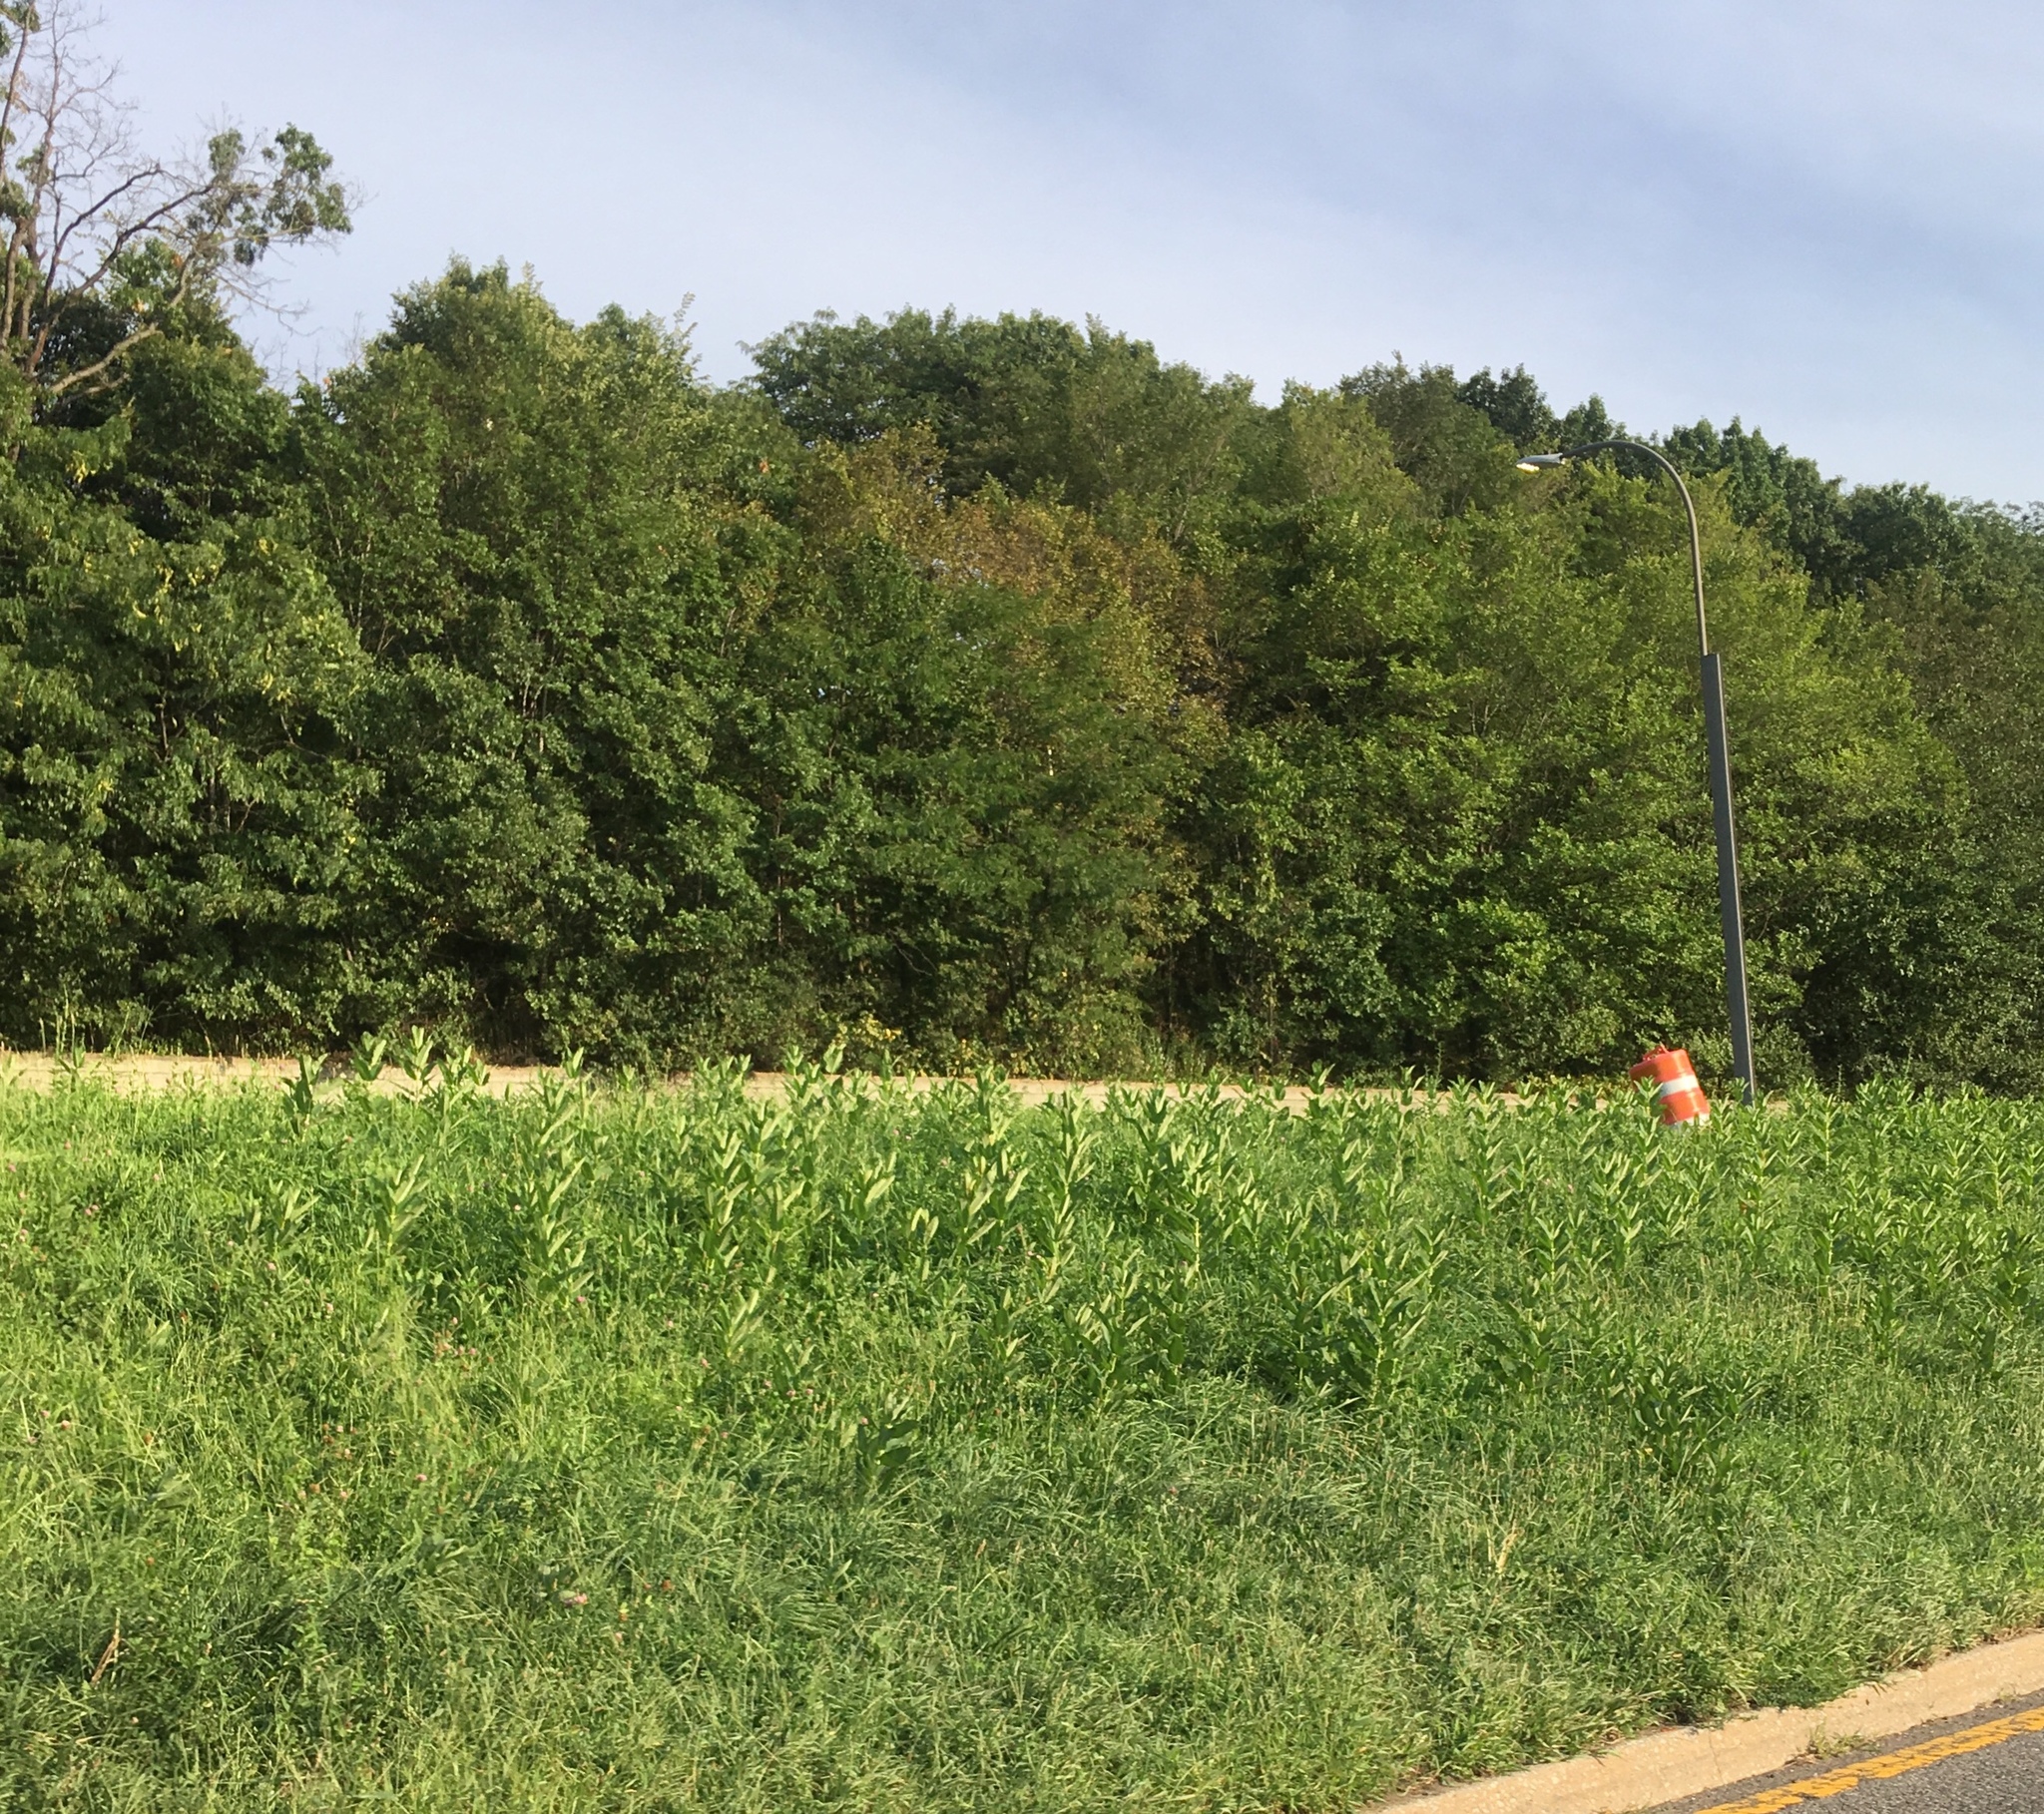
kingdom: Plantae
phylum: Tracheophyta
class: Magnoliopsida
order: Gentianales
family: Apocynaceae
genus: Asclepias
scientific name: Asclepias syriaca
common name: Common milkweed
